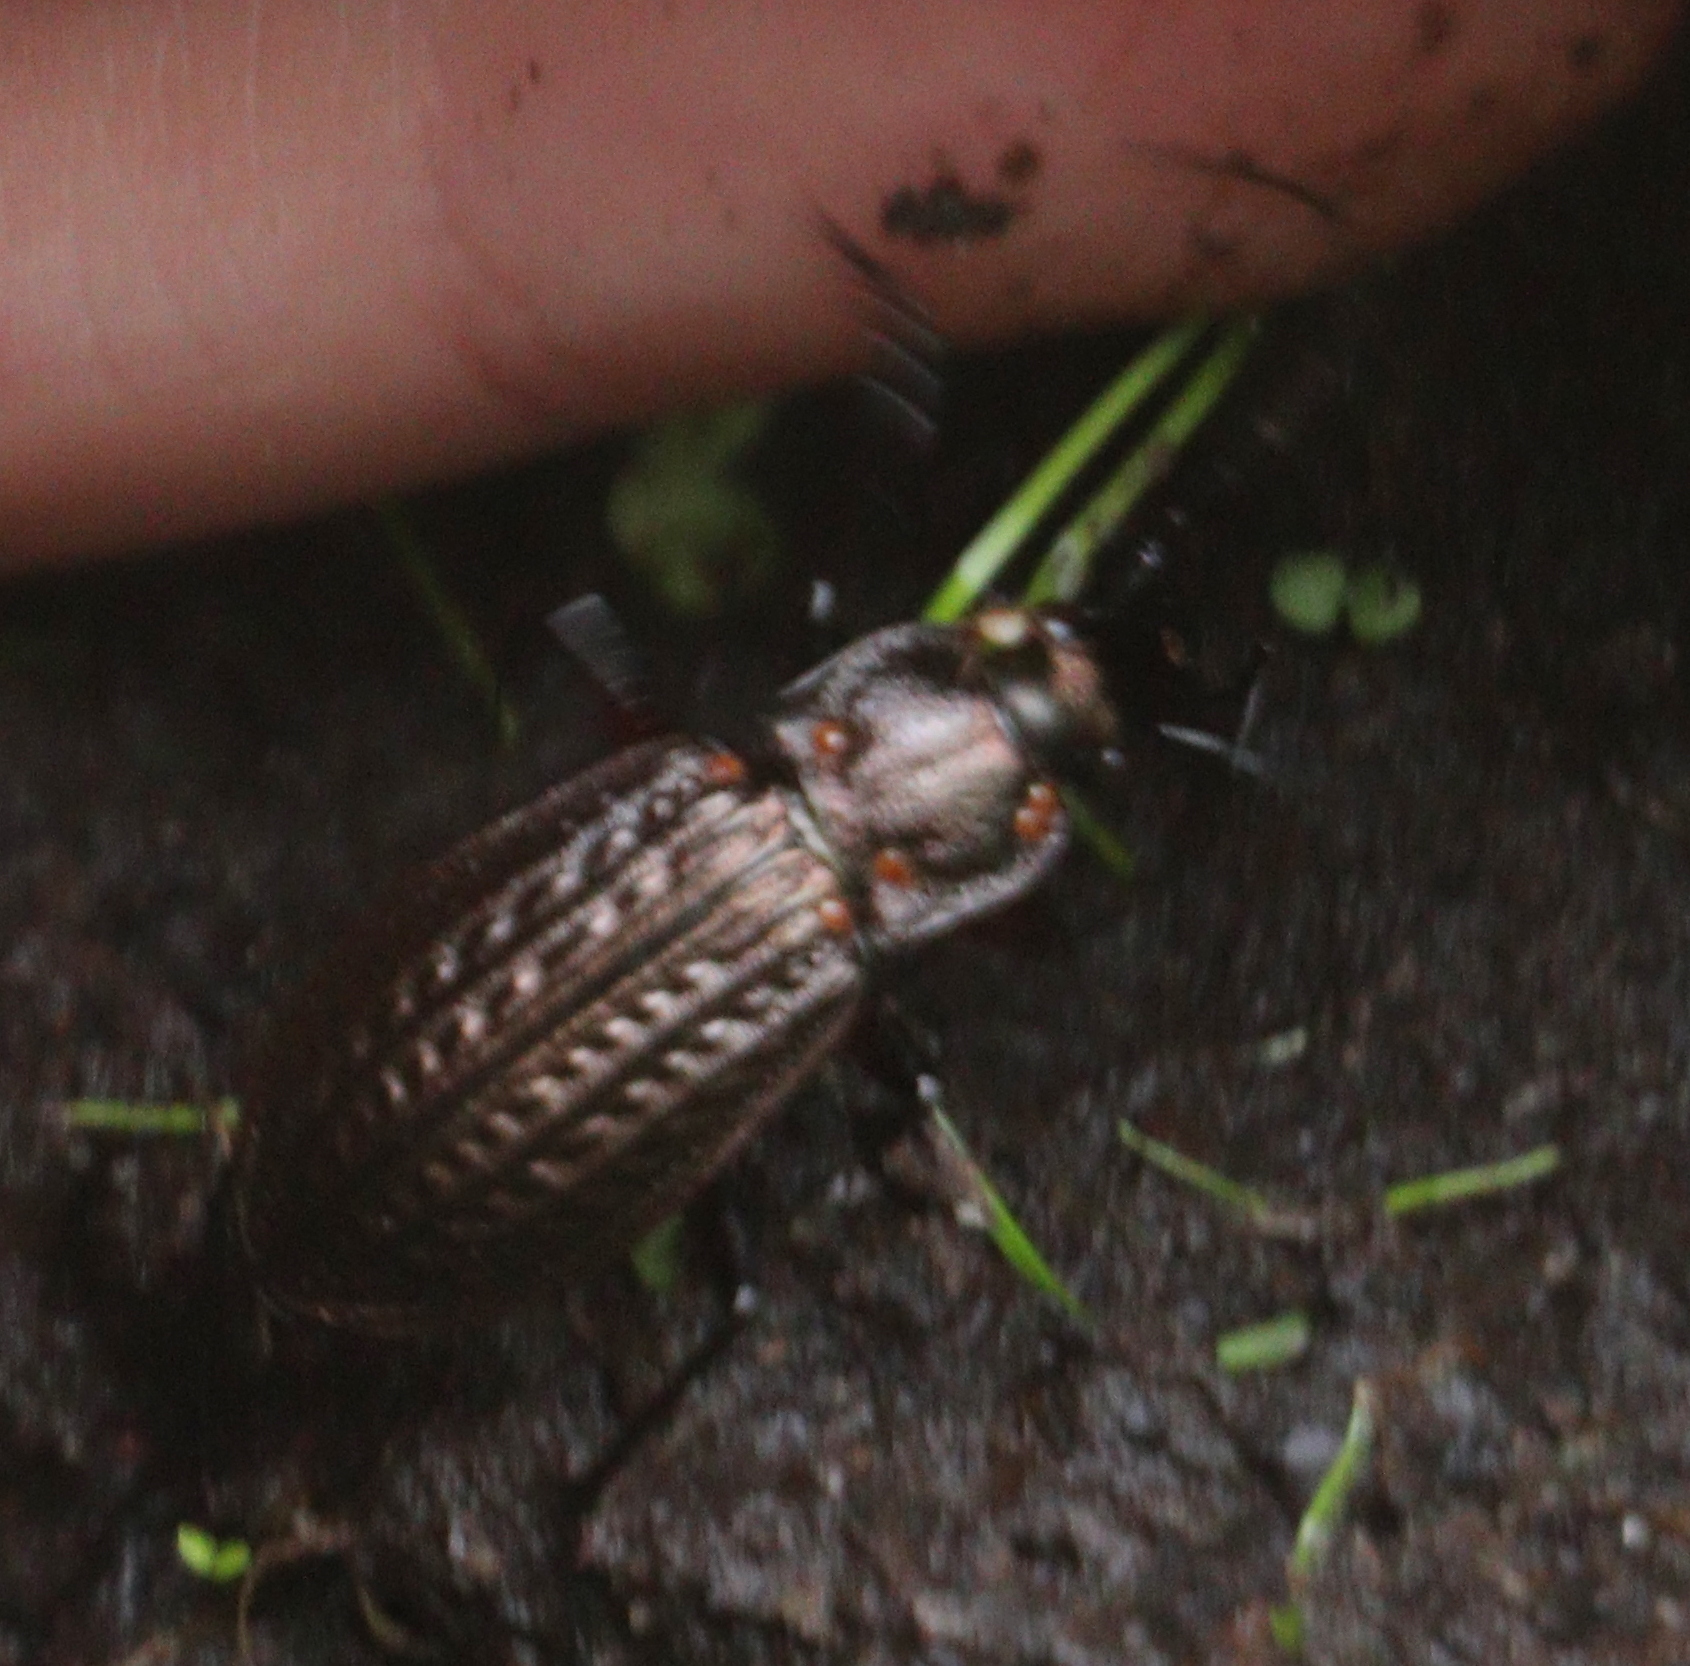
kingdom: Animalia
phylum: Arthropoda
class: Insecta
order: Coleoptera
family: Carabidae
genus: Carabus
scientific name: Carabus granulatus
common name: Granulate ground beetle
